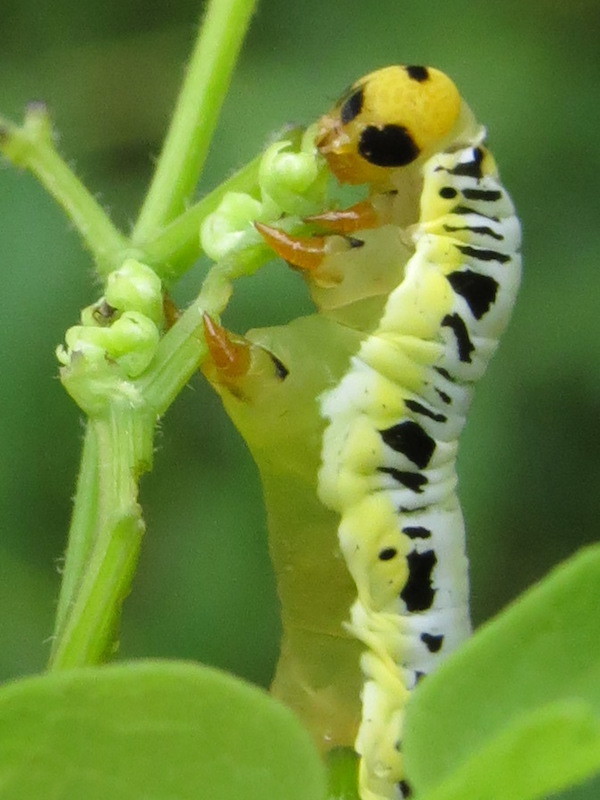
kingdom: Animalia
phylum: Arthropoda
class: Insecta
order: Lepidoptera
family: Erebidae
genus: Calyptra
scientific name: Calyptra canadensis
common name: Canadian owlet
